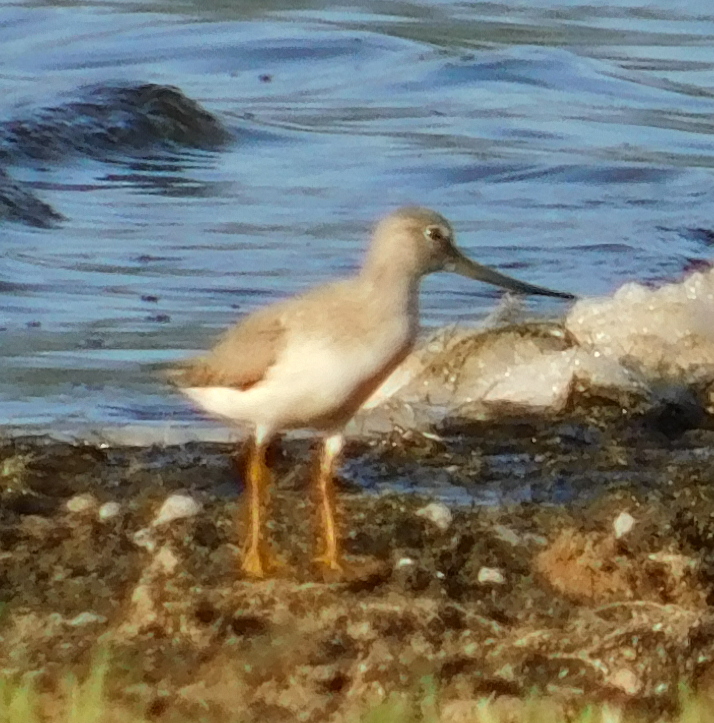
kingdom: Animalia
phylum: Chordata
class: Aves
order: Charadriiformes
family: Scolopacidae
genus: Xenus
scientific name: Xenus cinereus
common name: Terek sandpiper
